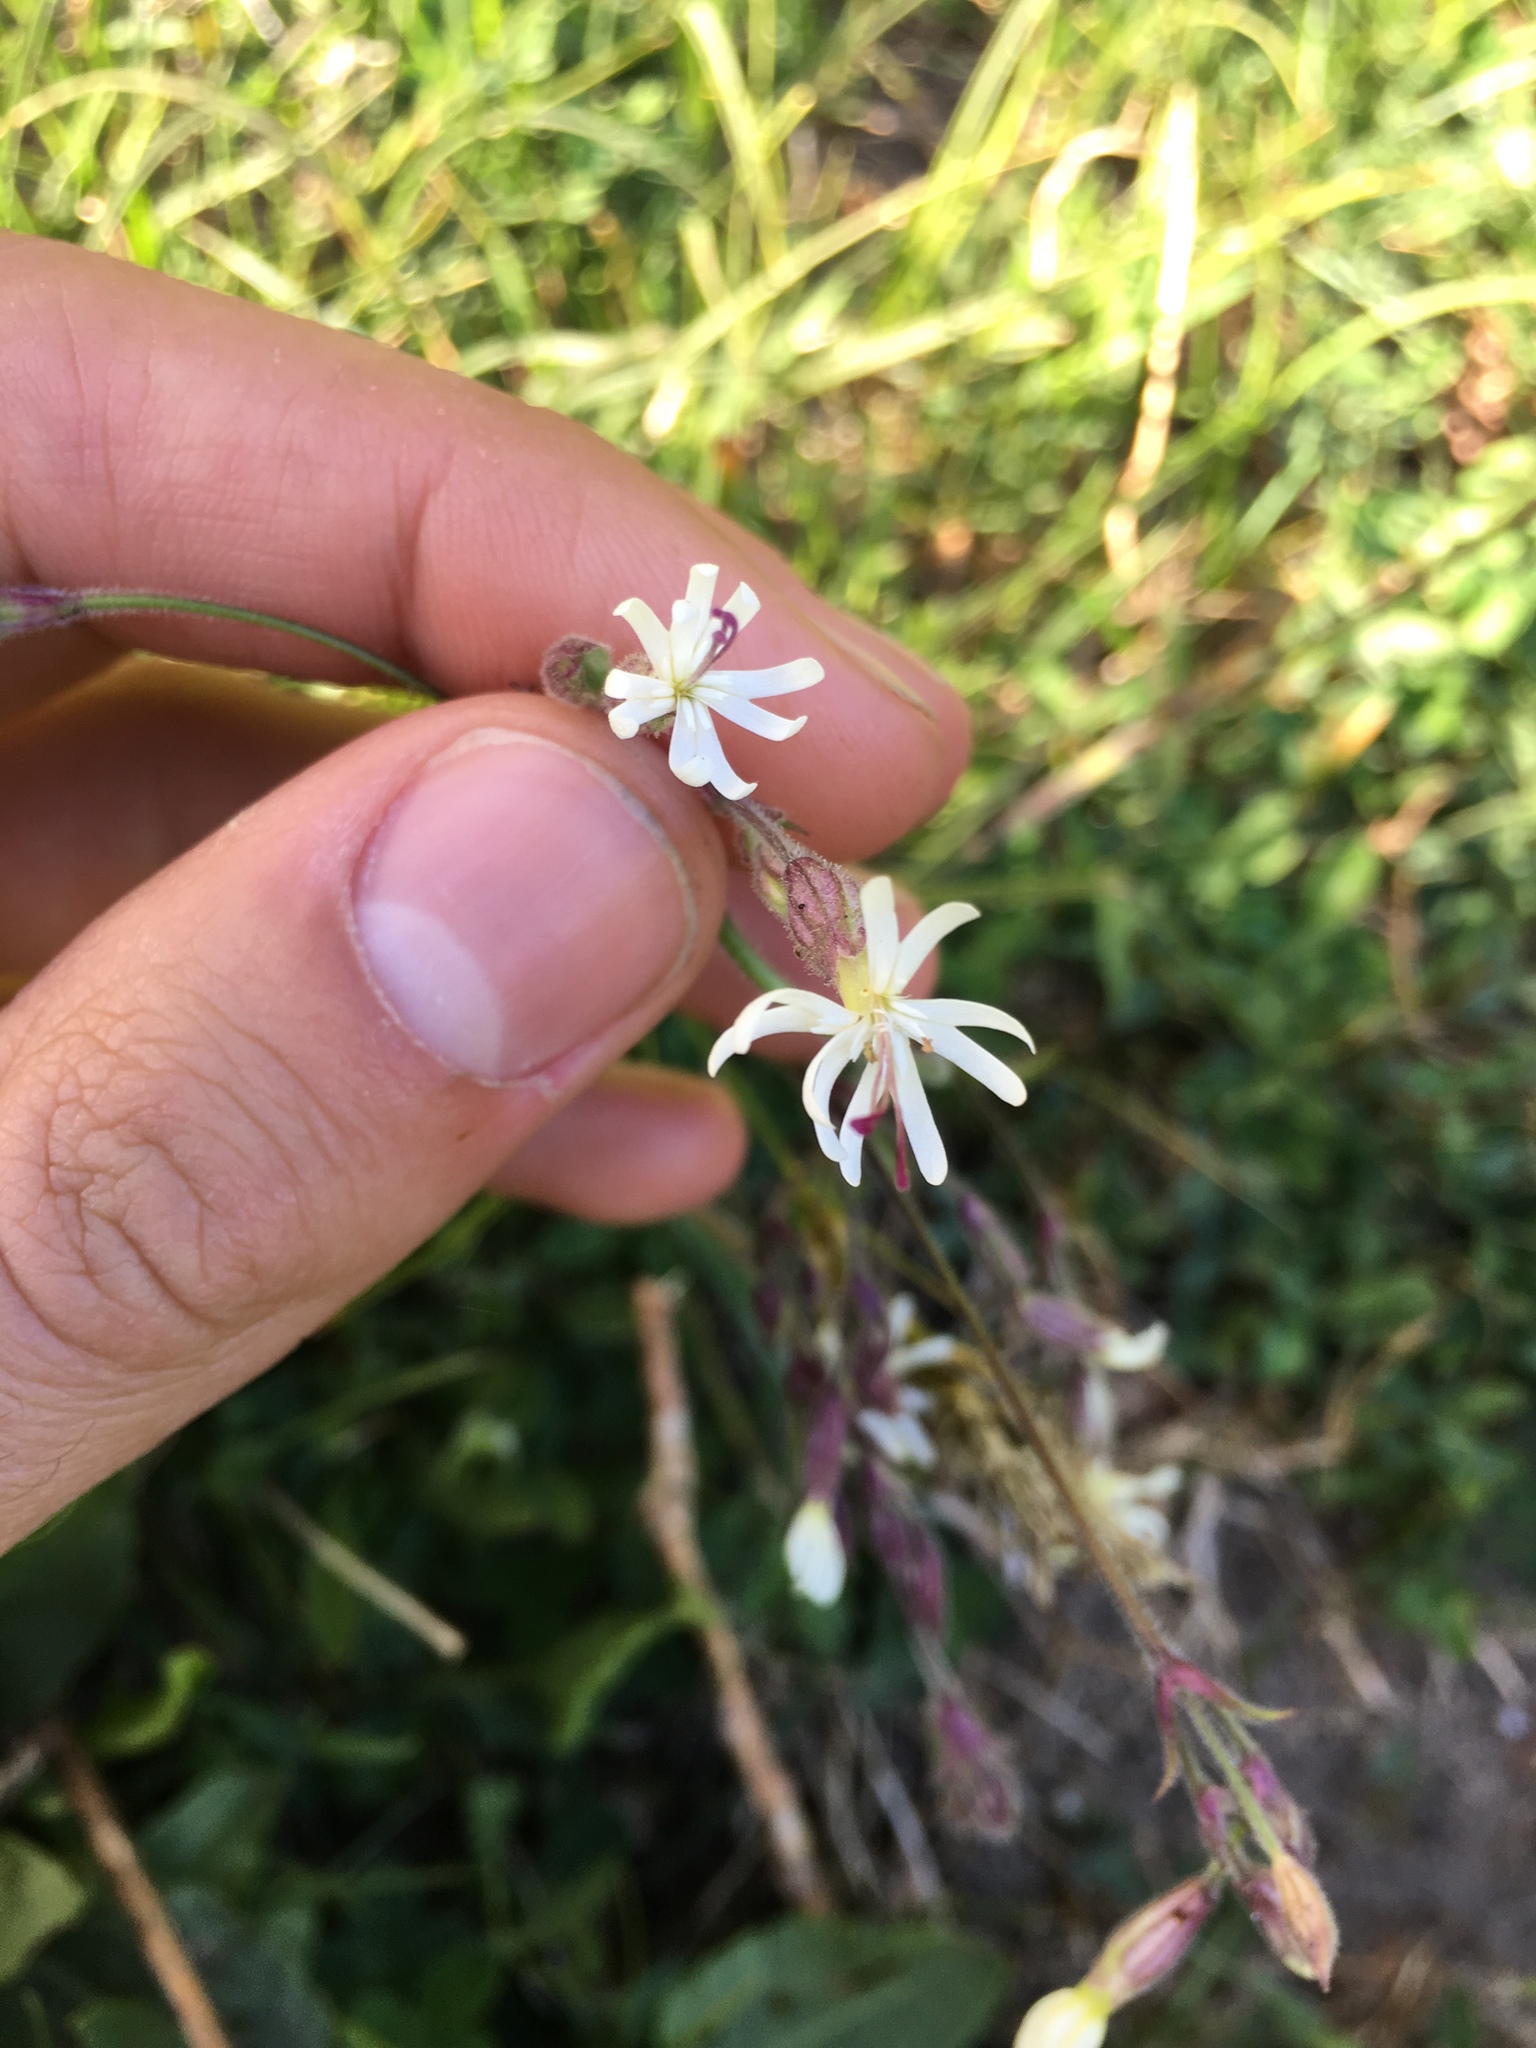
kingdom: Plantae
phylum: Tracheophyta
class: Magnoliopsida
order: Caryophyllales
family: Caryophyllaceae
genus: Silene
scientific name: Silene nutans
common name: Nottingham catchfly
